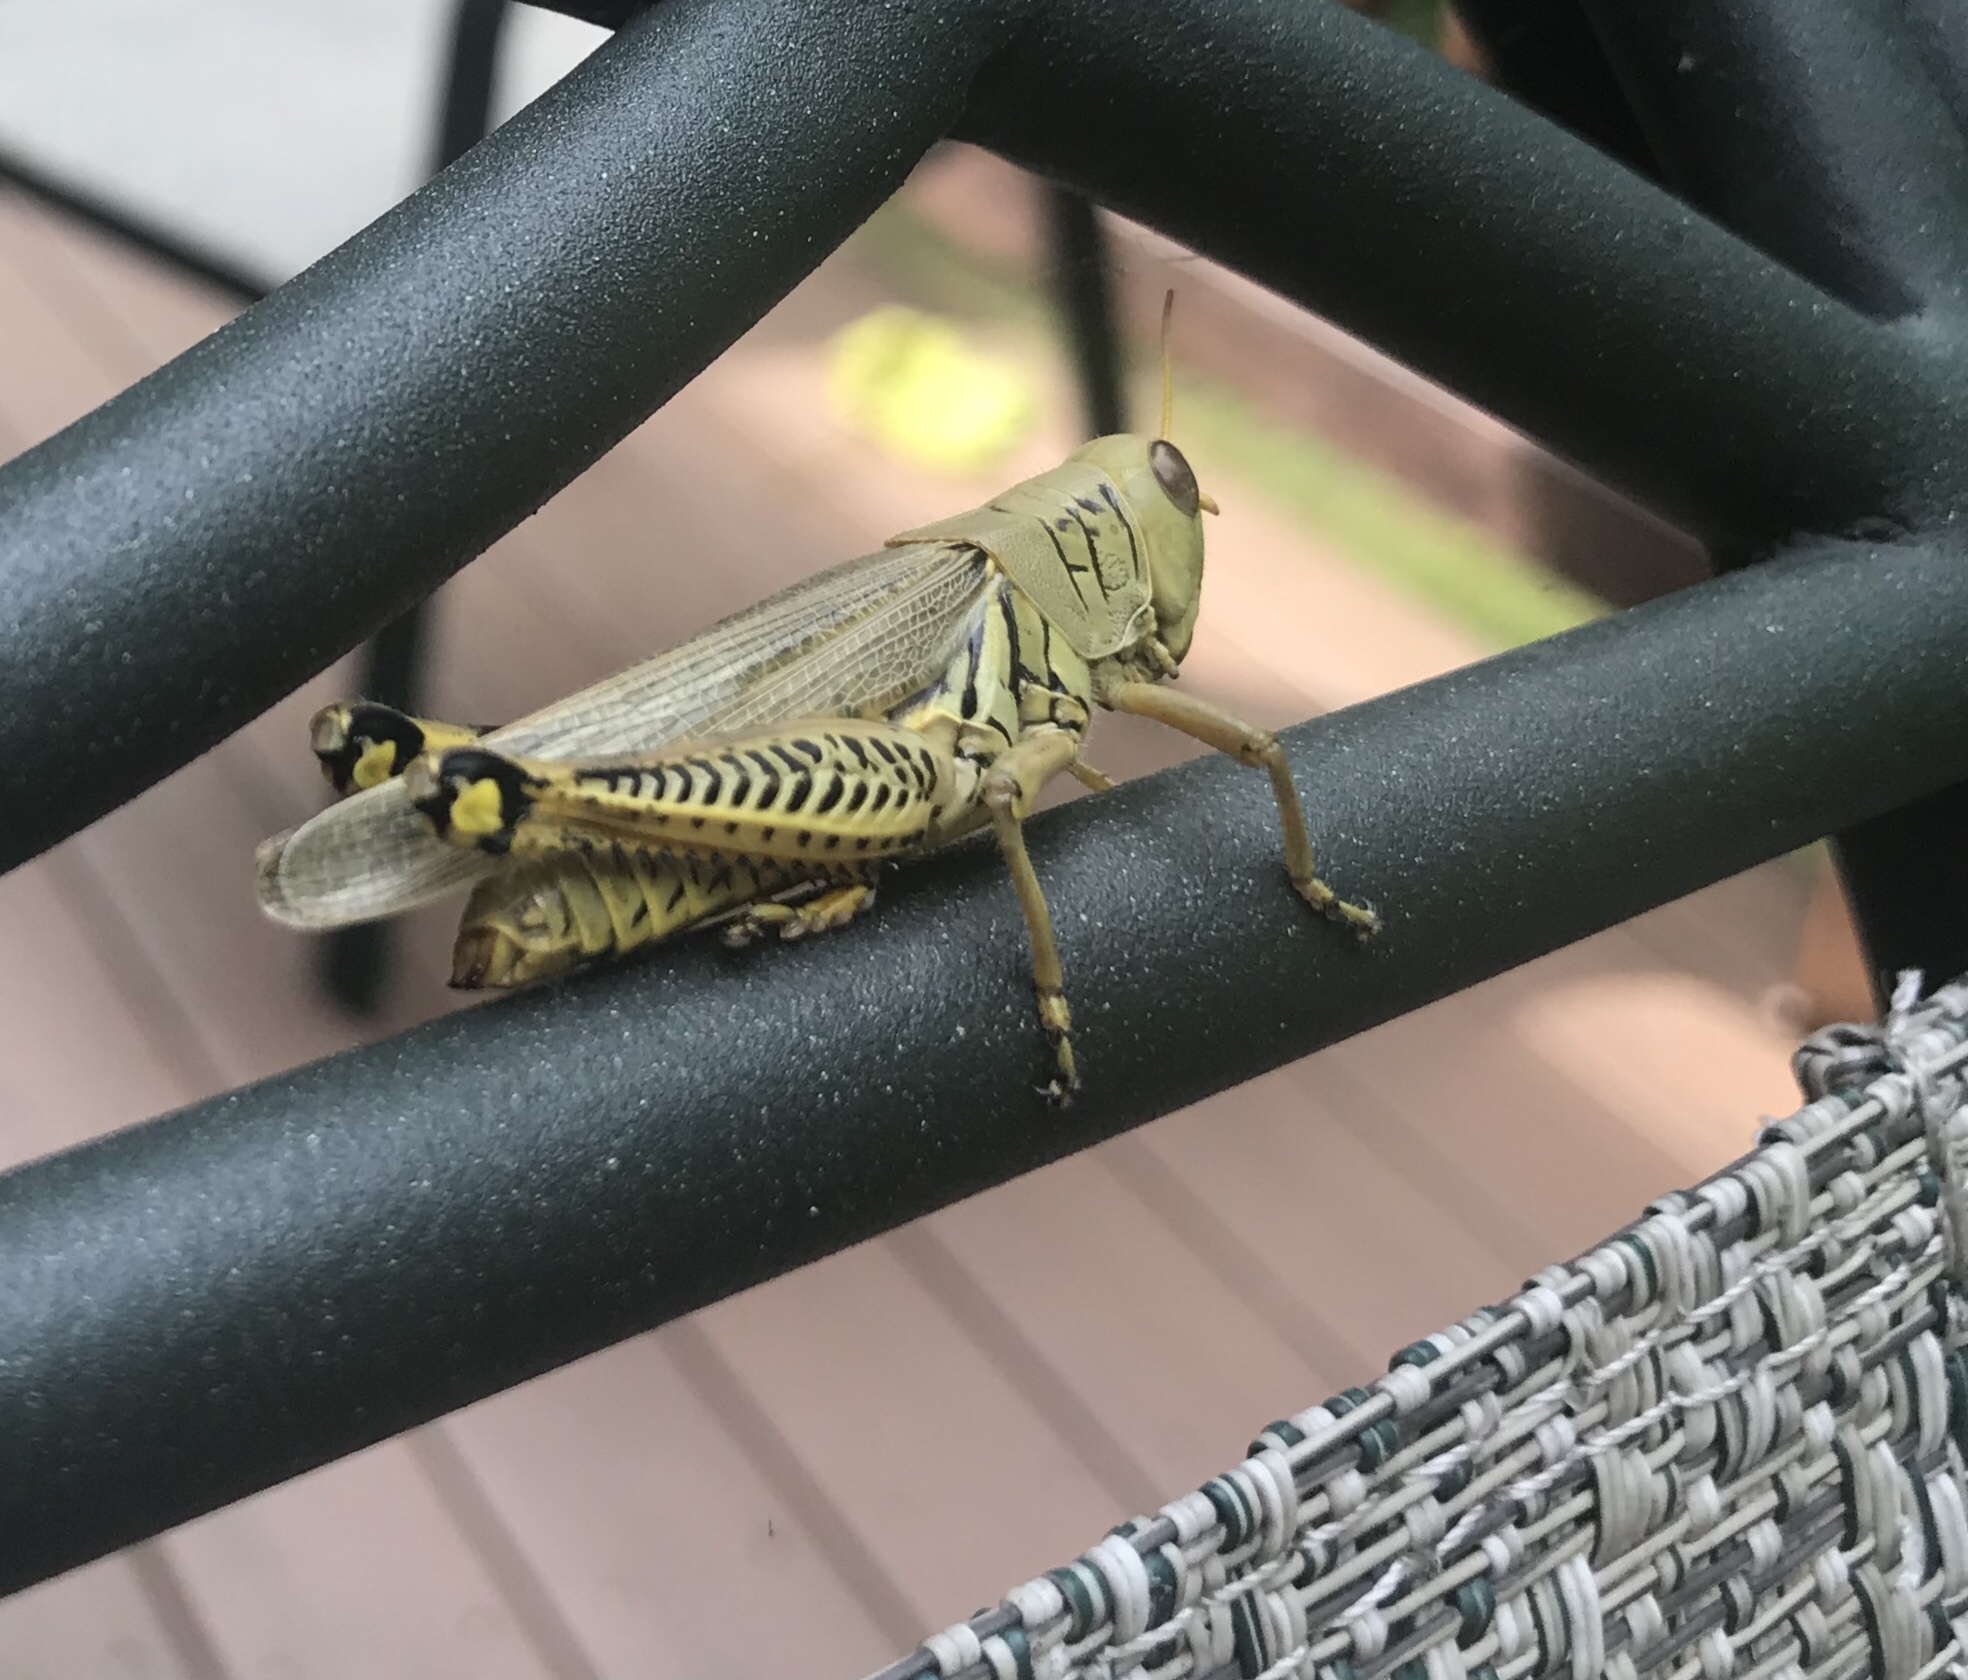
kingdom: Animalia
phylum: Arthropoda
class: Insecta
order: Orthoptera
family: Acrididae
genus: Melanoplus
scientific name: Melanoplus differentialis
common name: Differential grasshopper
